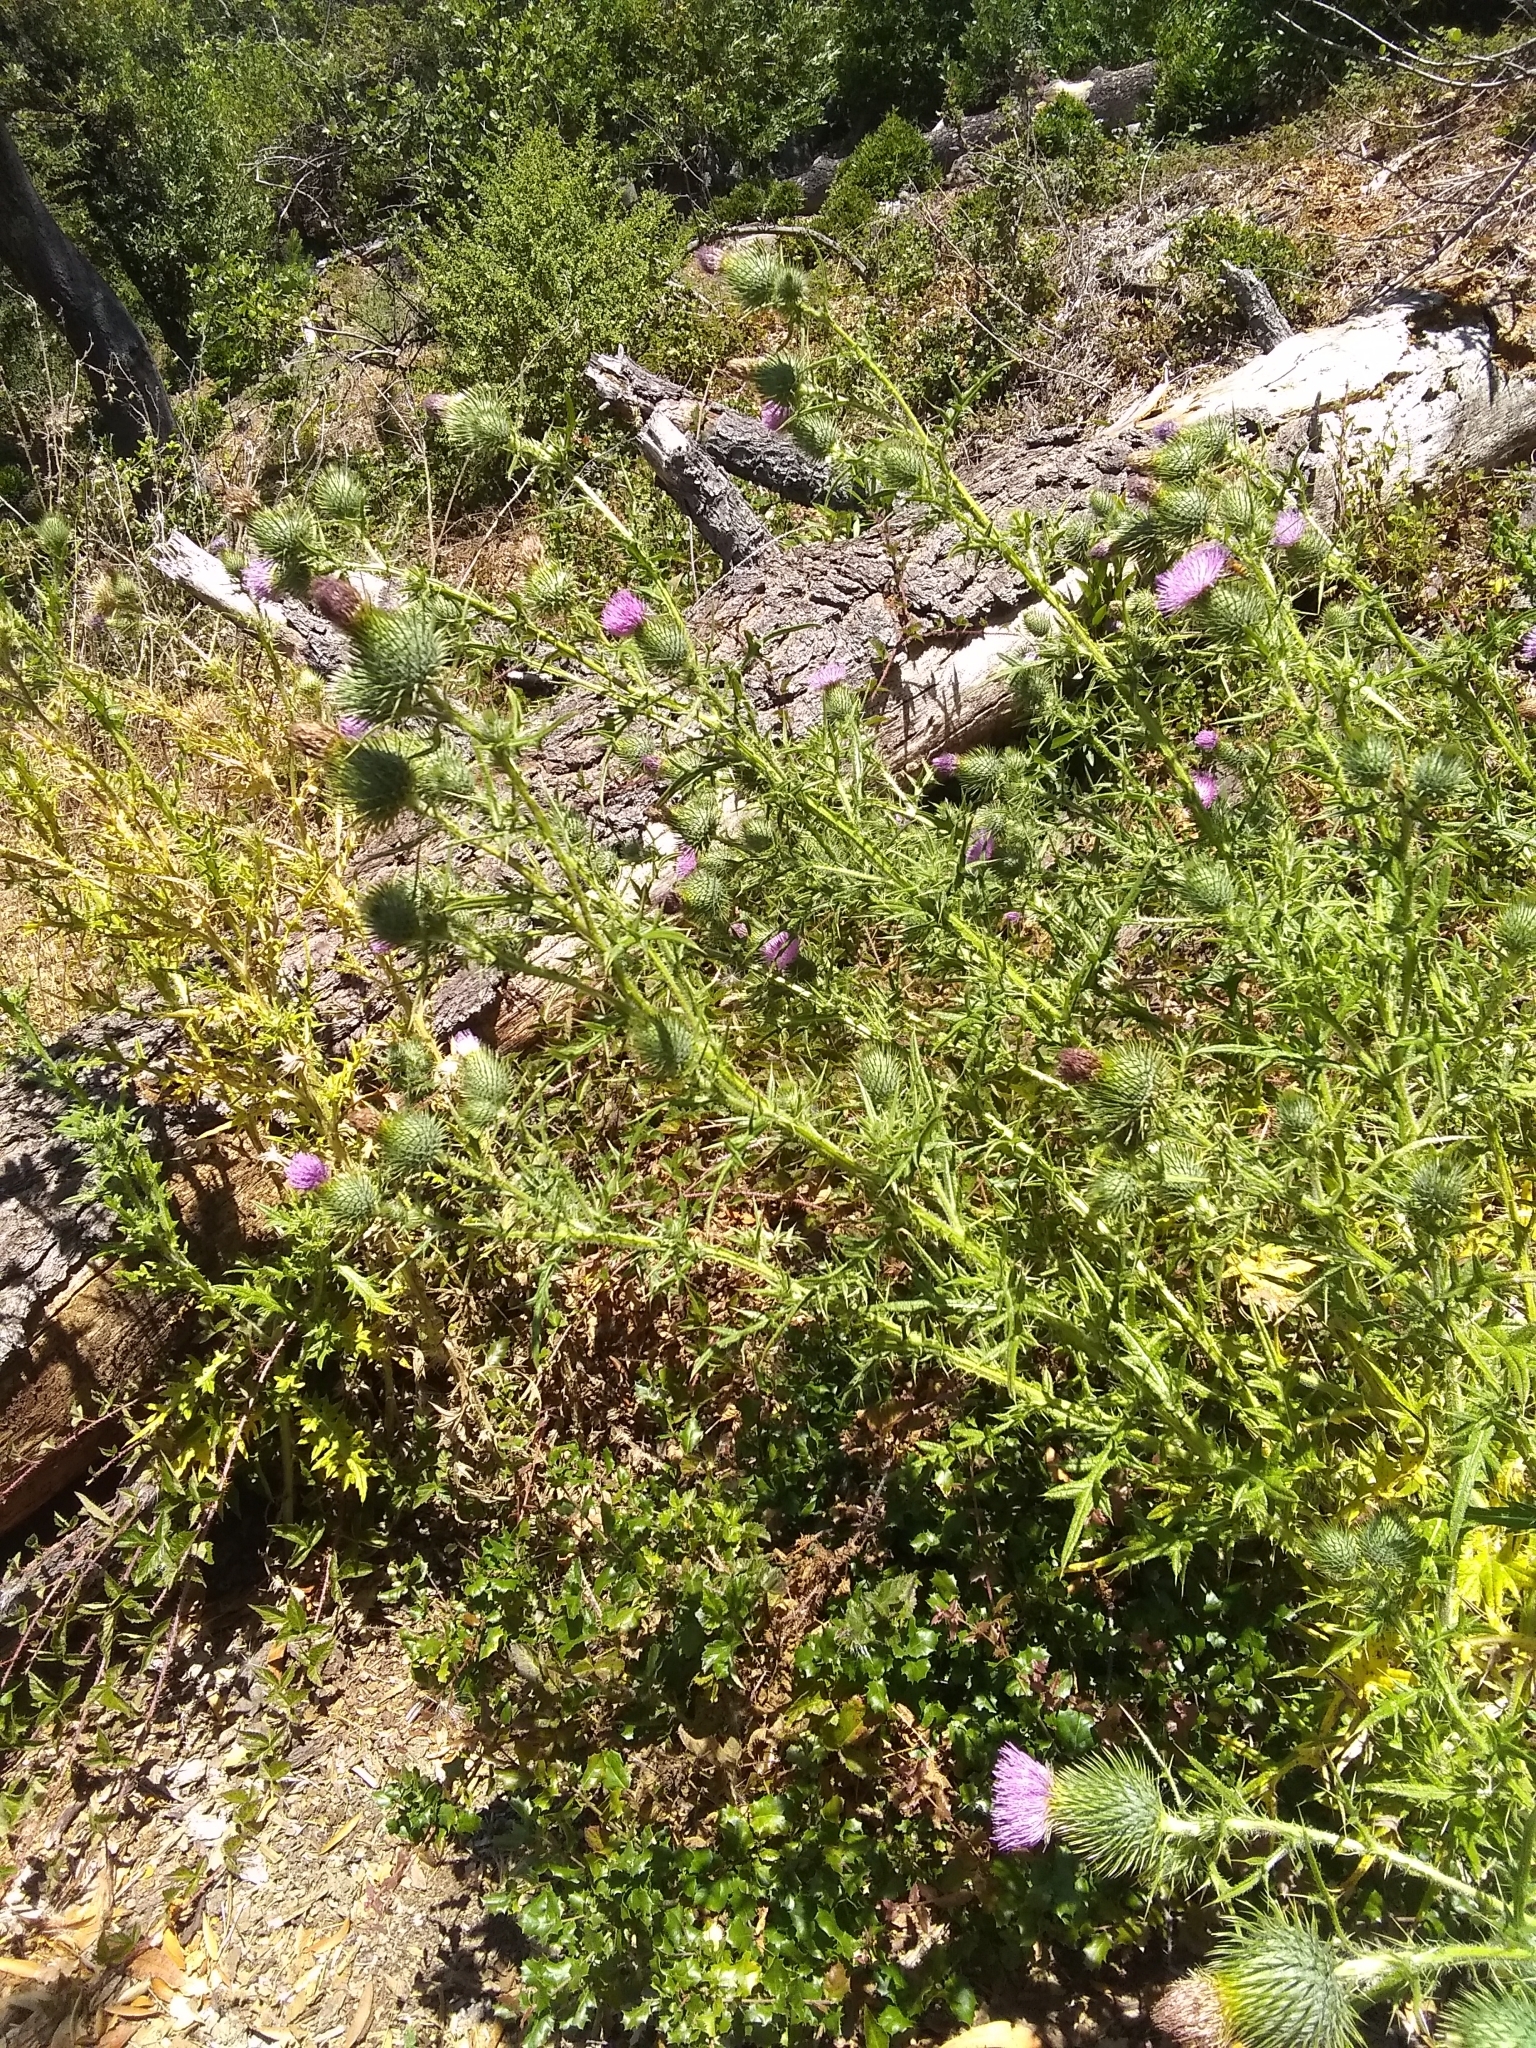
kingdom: Plantae
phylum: Tracheophyta
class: Magnoliopsida
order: Asterales
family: Asteraceae
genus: Cirsium
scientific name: Cirsium vulgare
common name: Bull thistle
